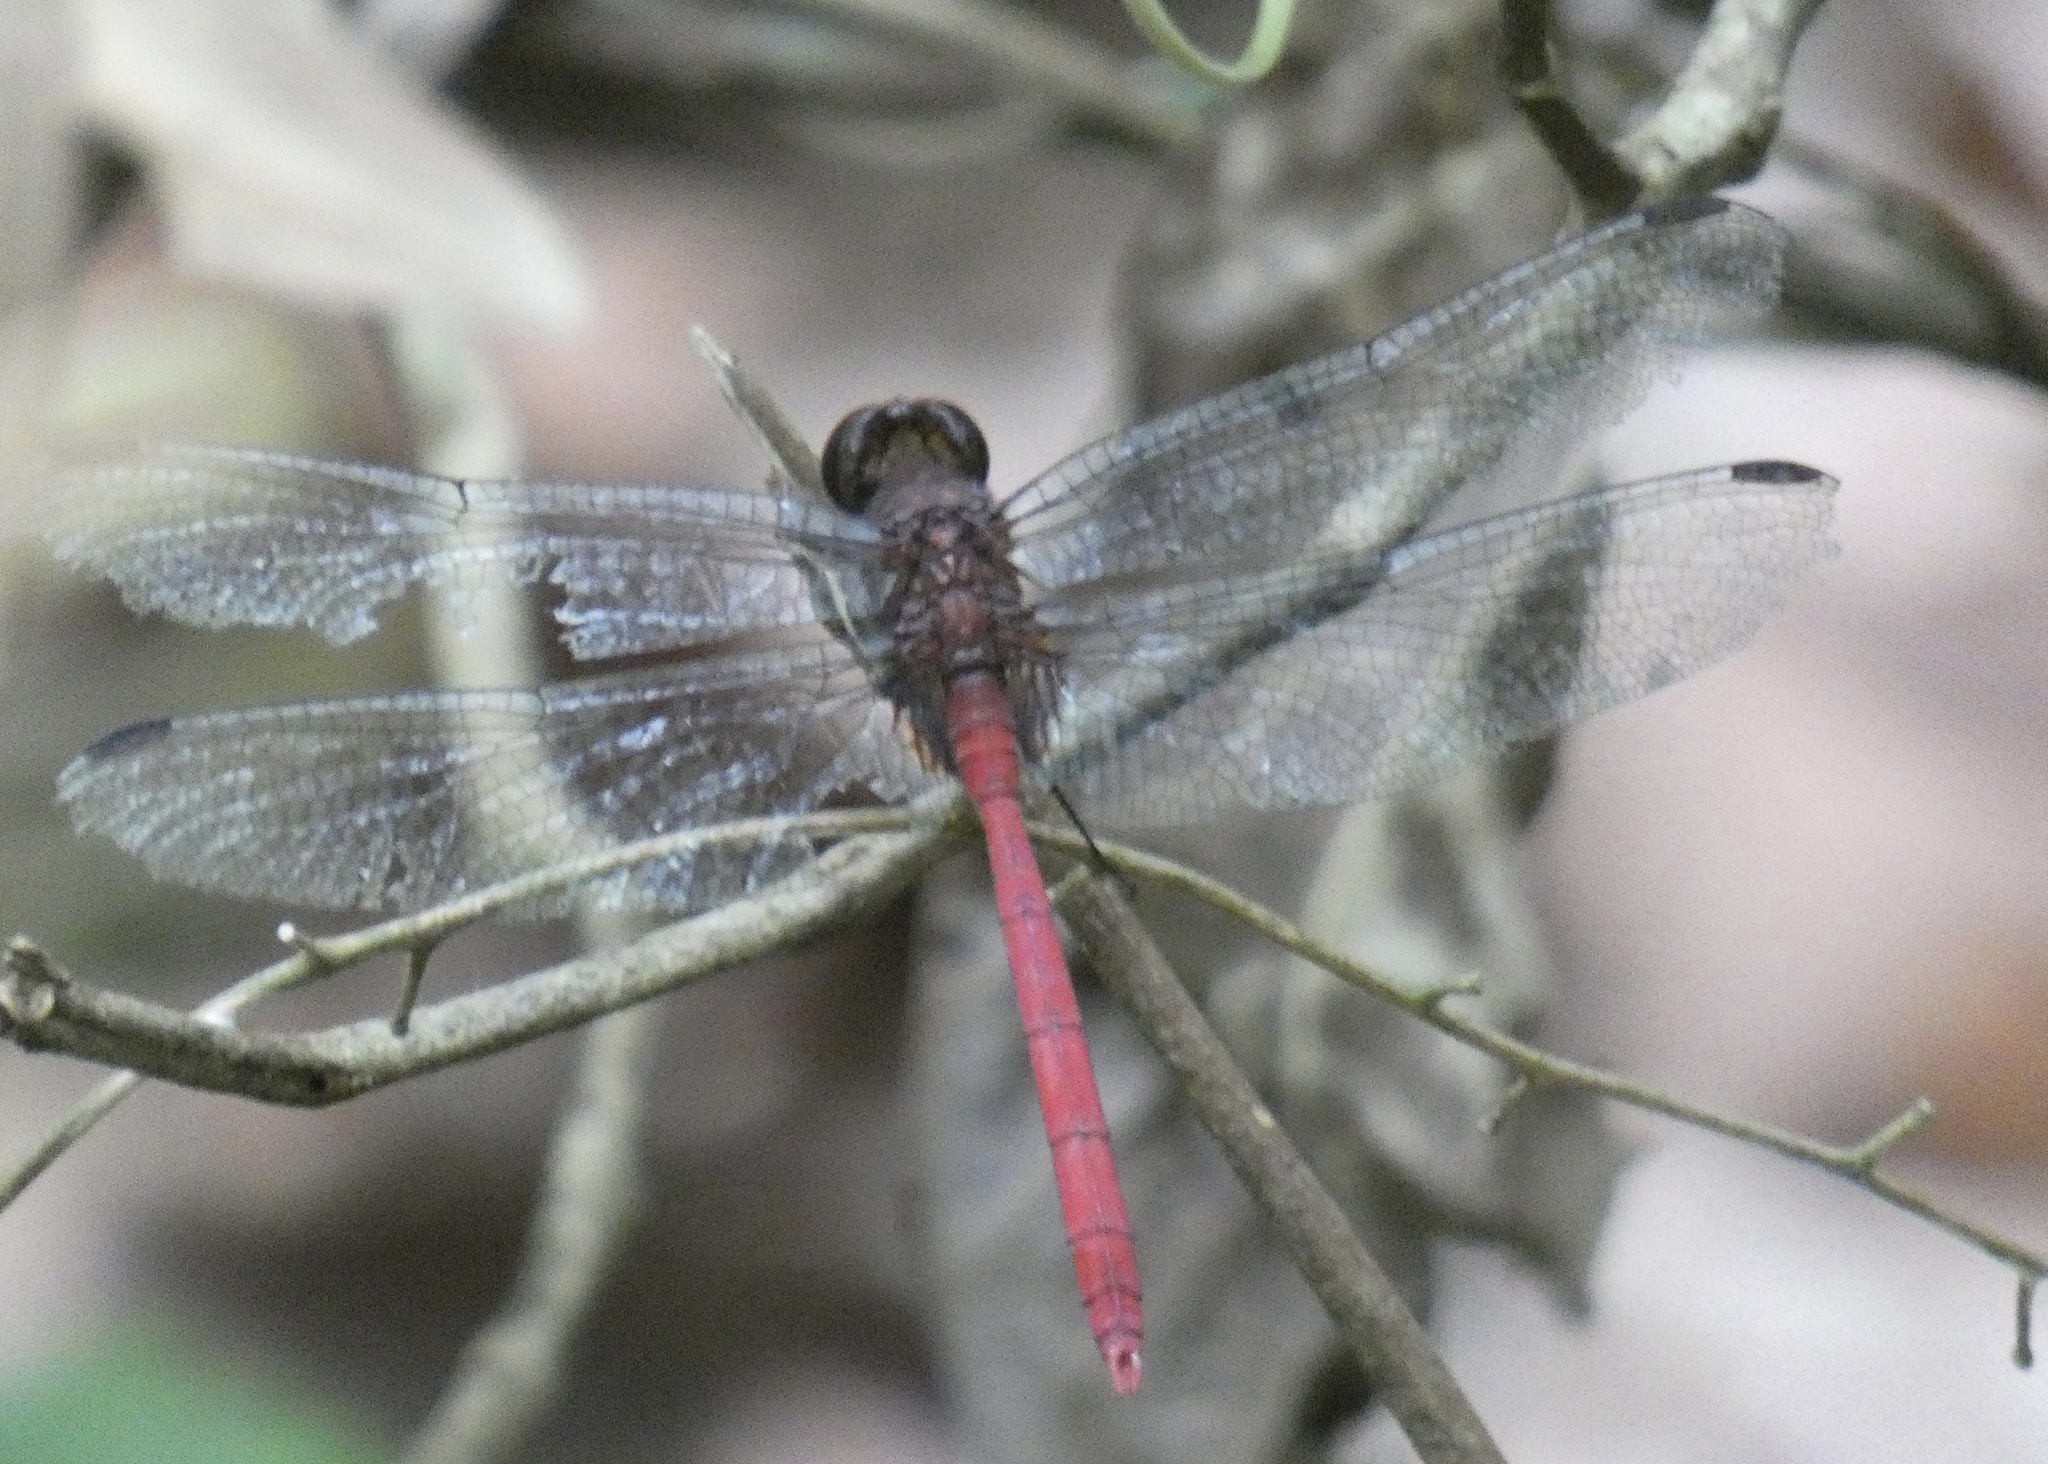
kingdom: Animalia
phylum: Arthropoda
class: Insecta
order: Odonata
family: Libellulidae
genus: Erythemis
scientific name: Erythemis haematogastra
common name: Red pondhawk
